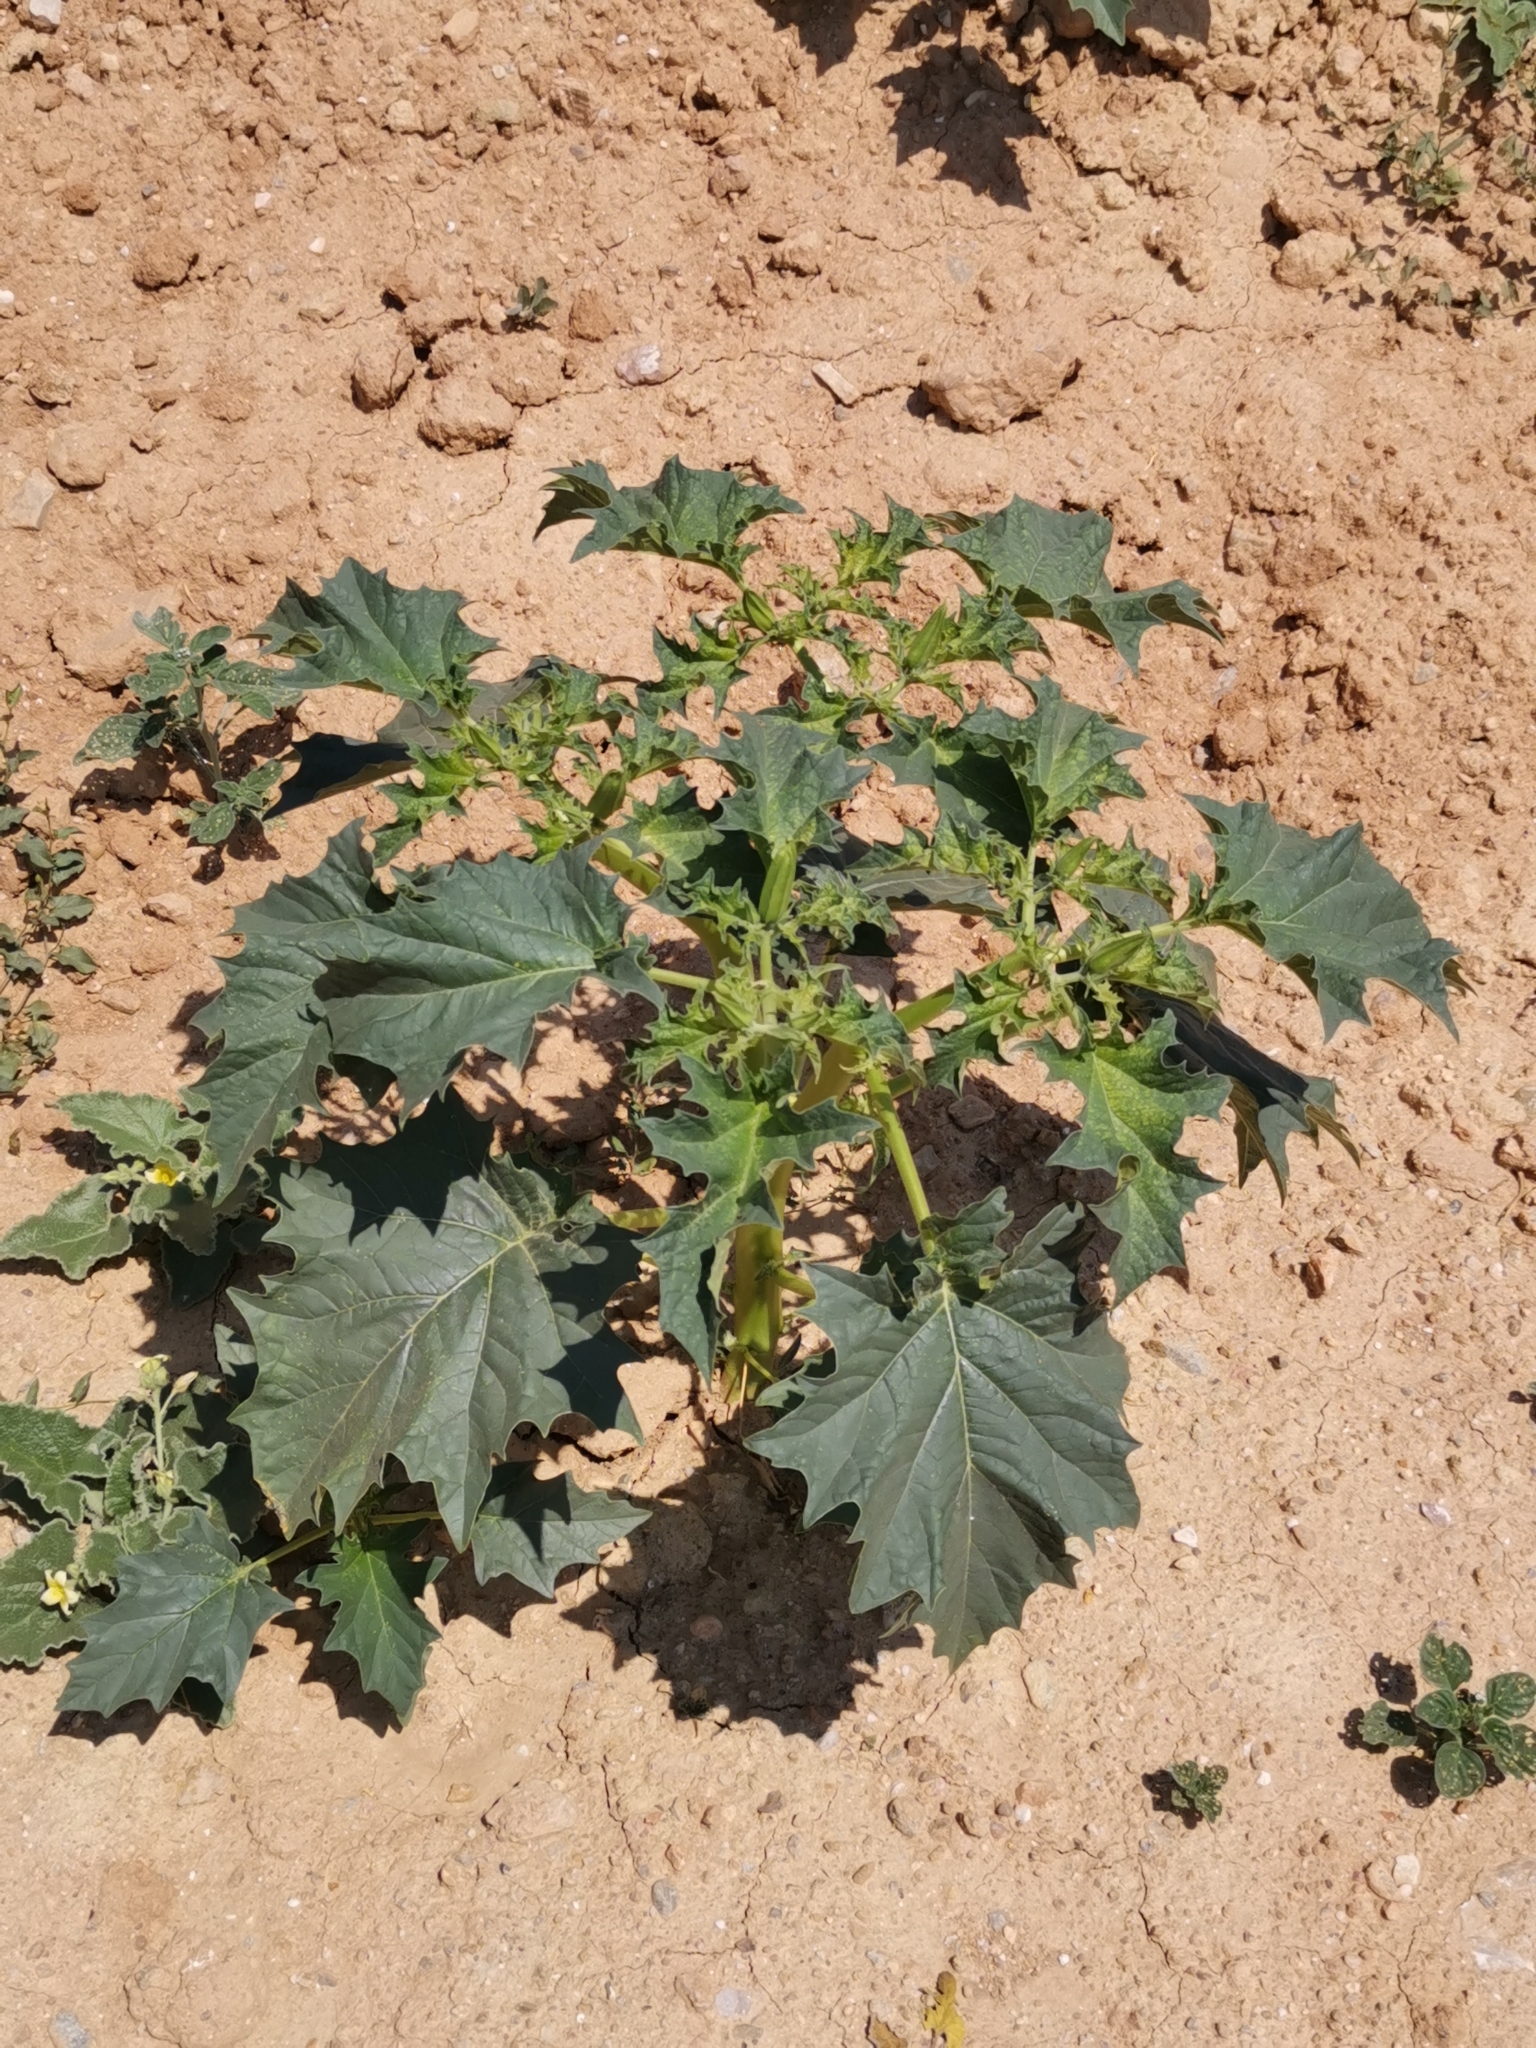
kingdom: Plantae
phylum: Tracheophyta
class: Magnoliopsida
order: Solanales
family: Solanaceae
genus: Datura
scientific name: Datura stramonium
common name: Thorn-apple
